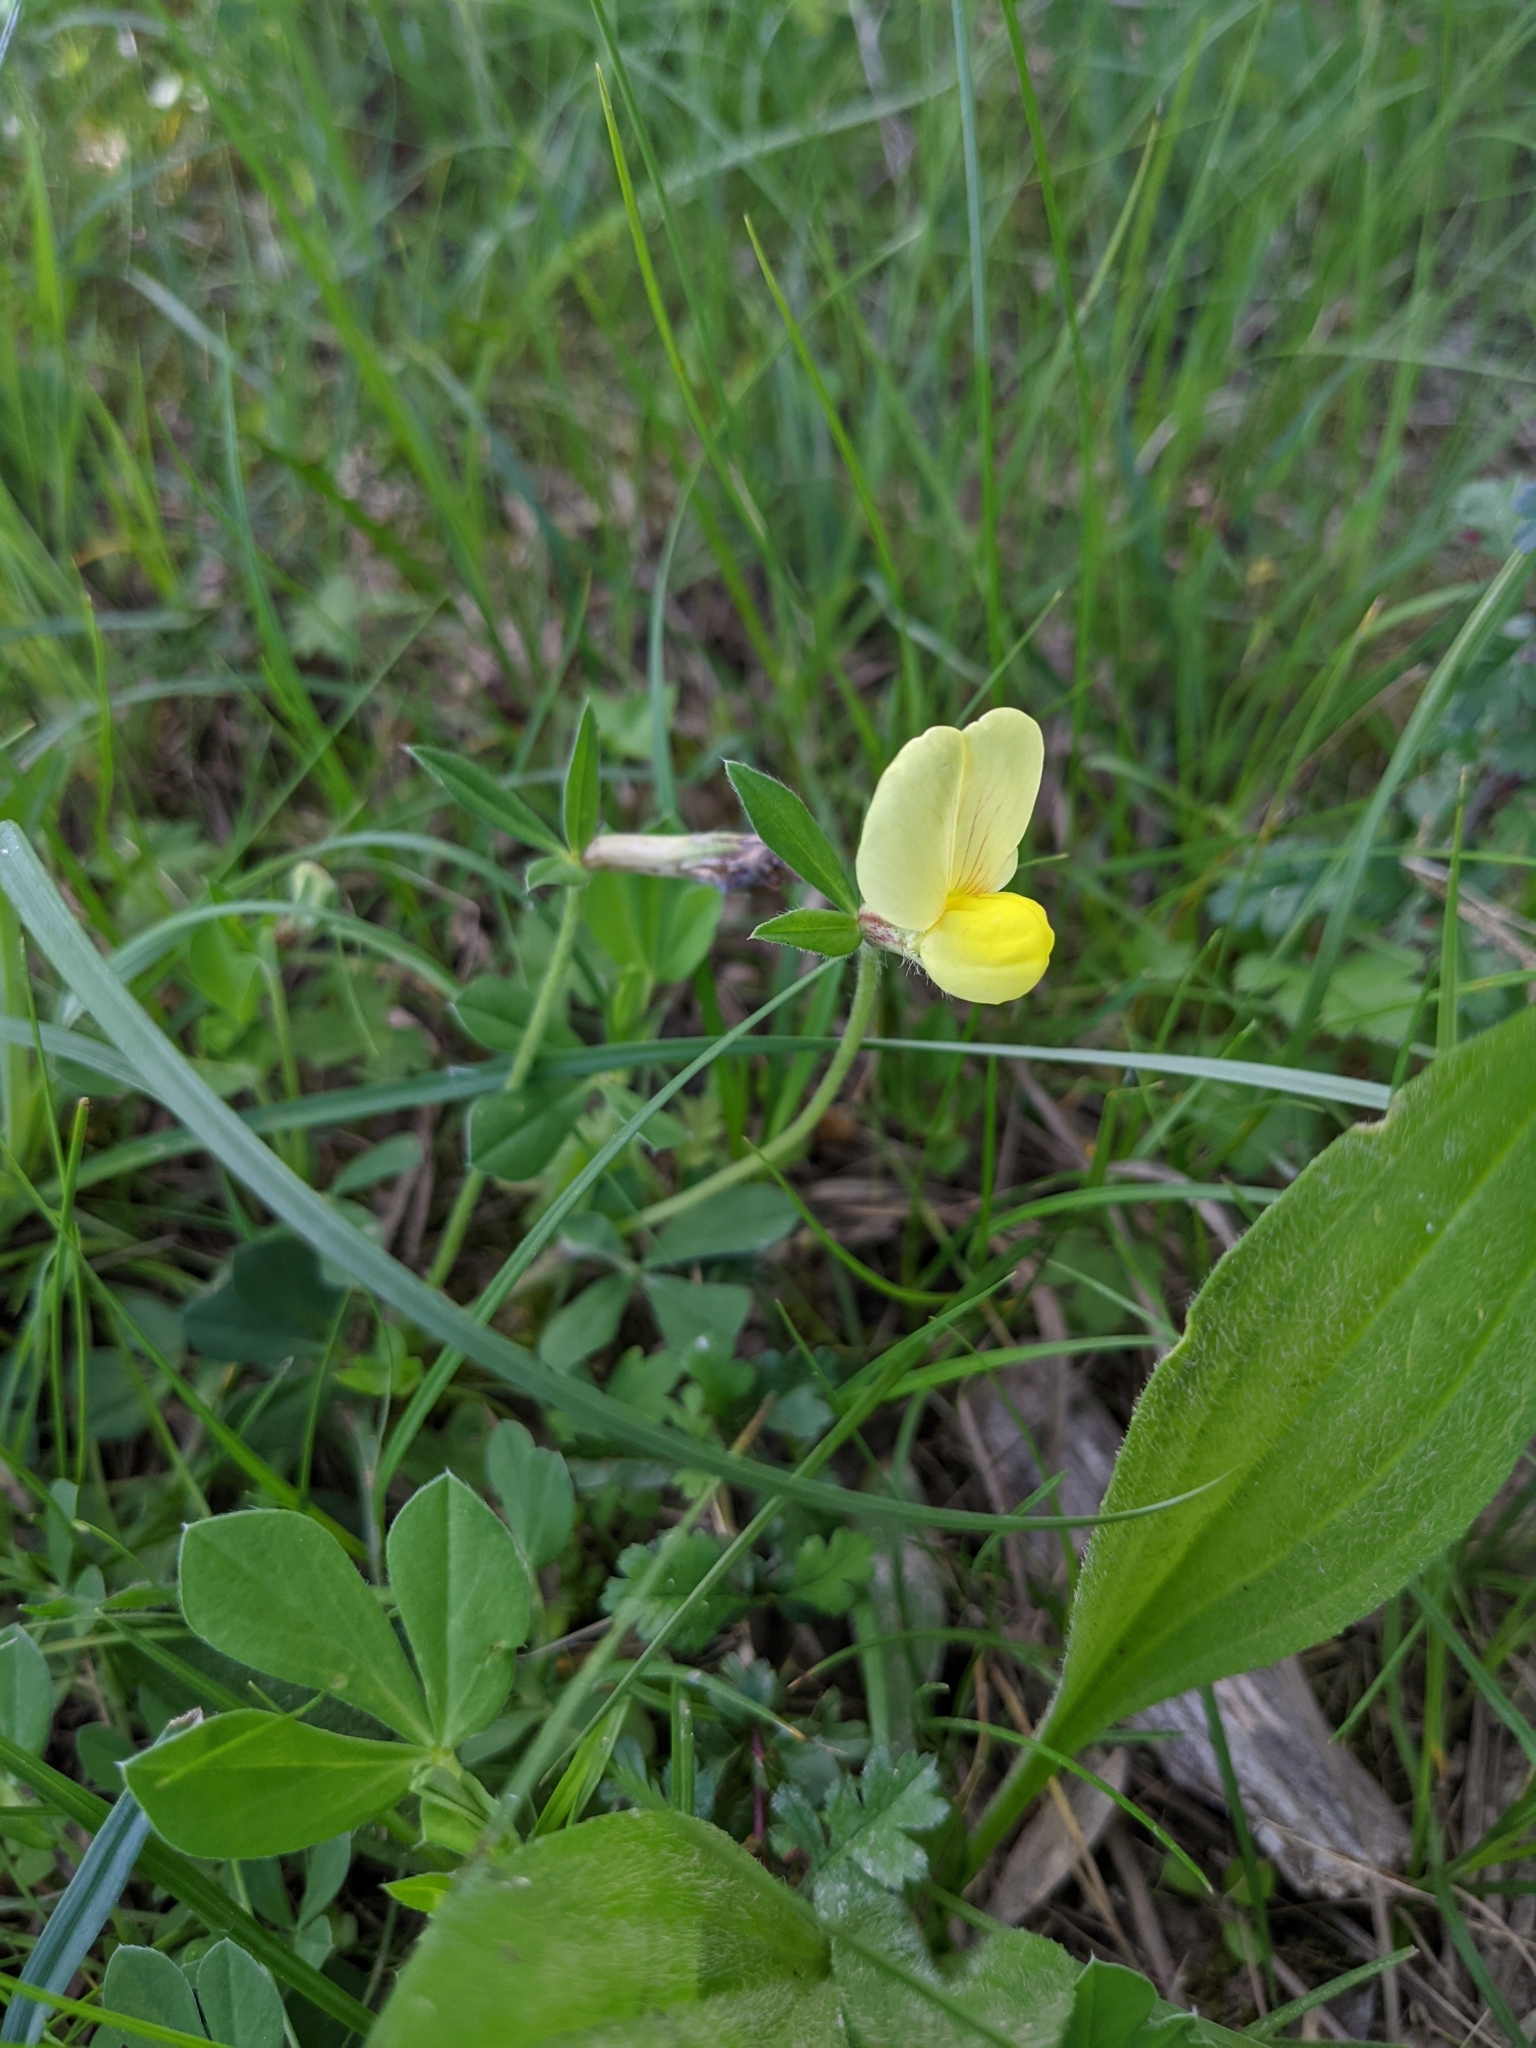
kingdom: Plantae
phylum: Tracheophyta
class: Magnoliopsida
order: Fabales
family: Fabaceae
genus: Lotus
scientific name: Lotus maritimus
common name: Dragon's-teeth
